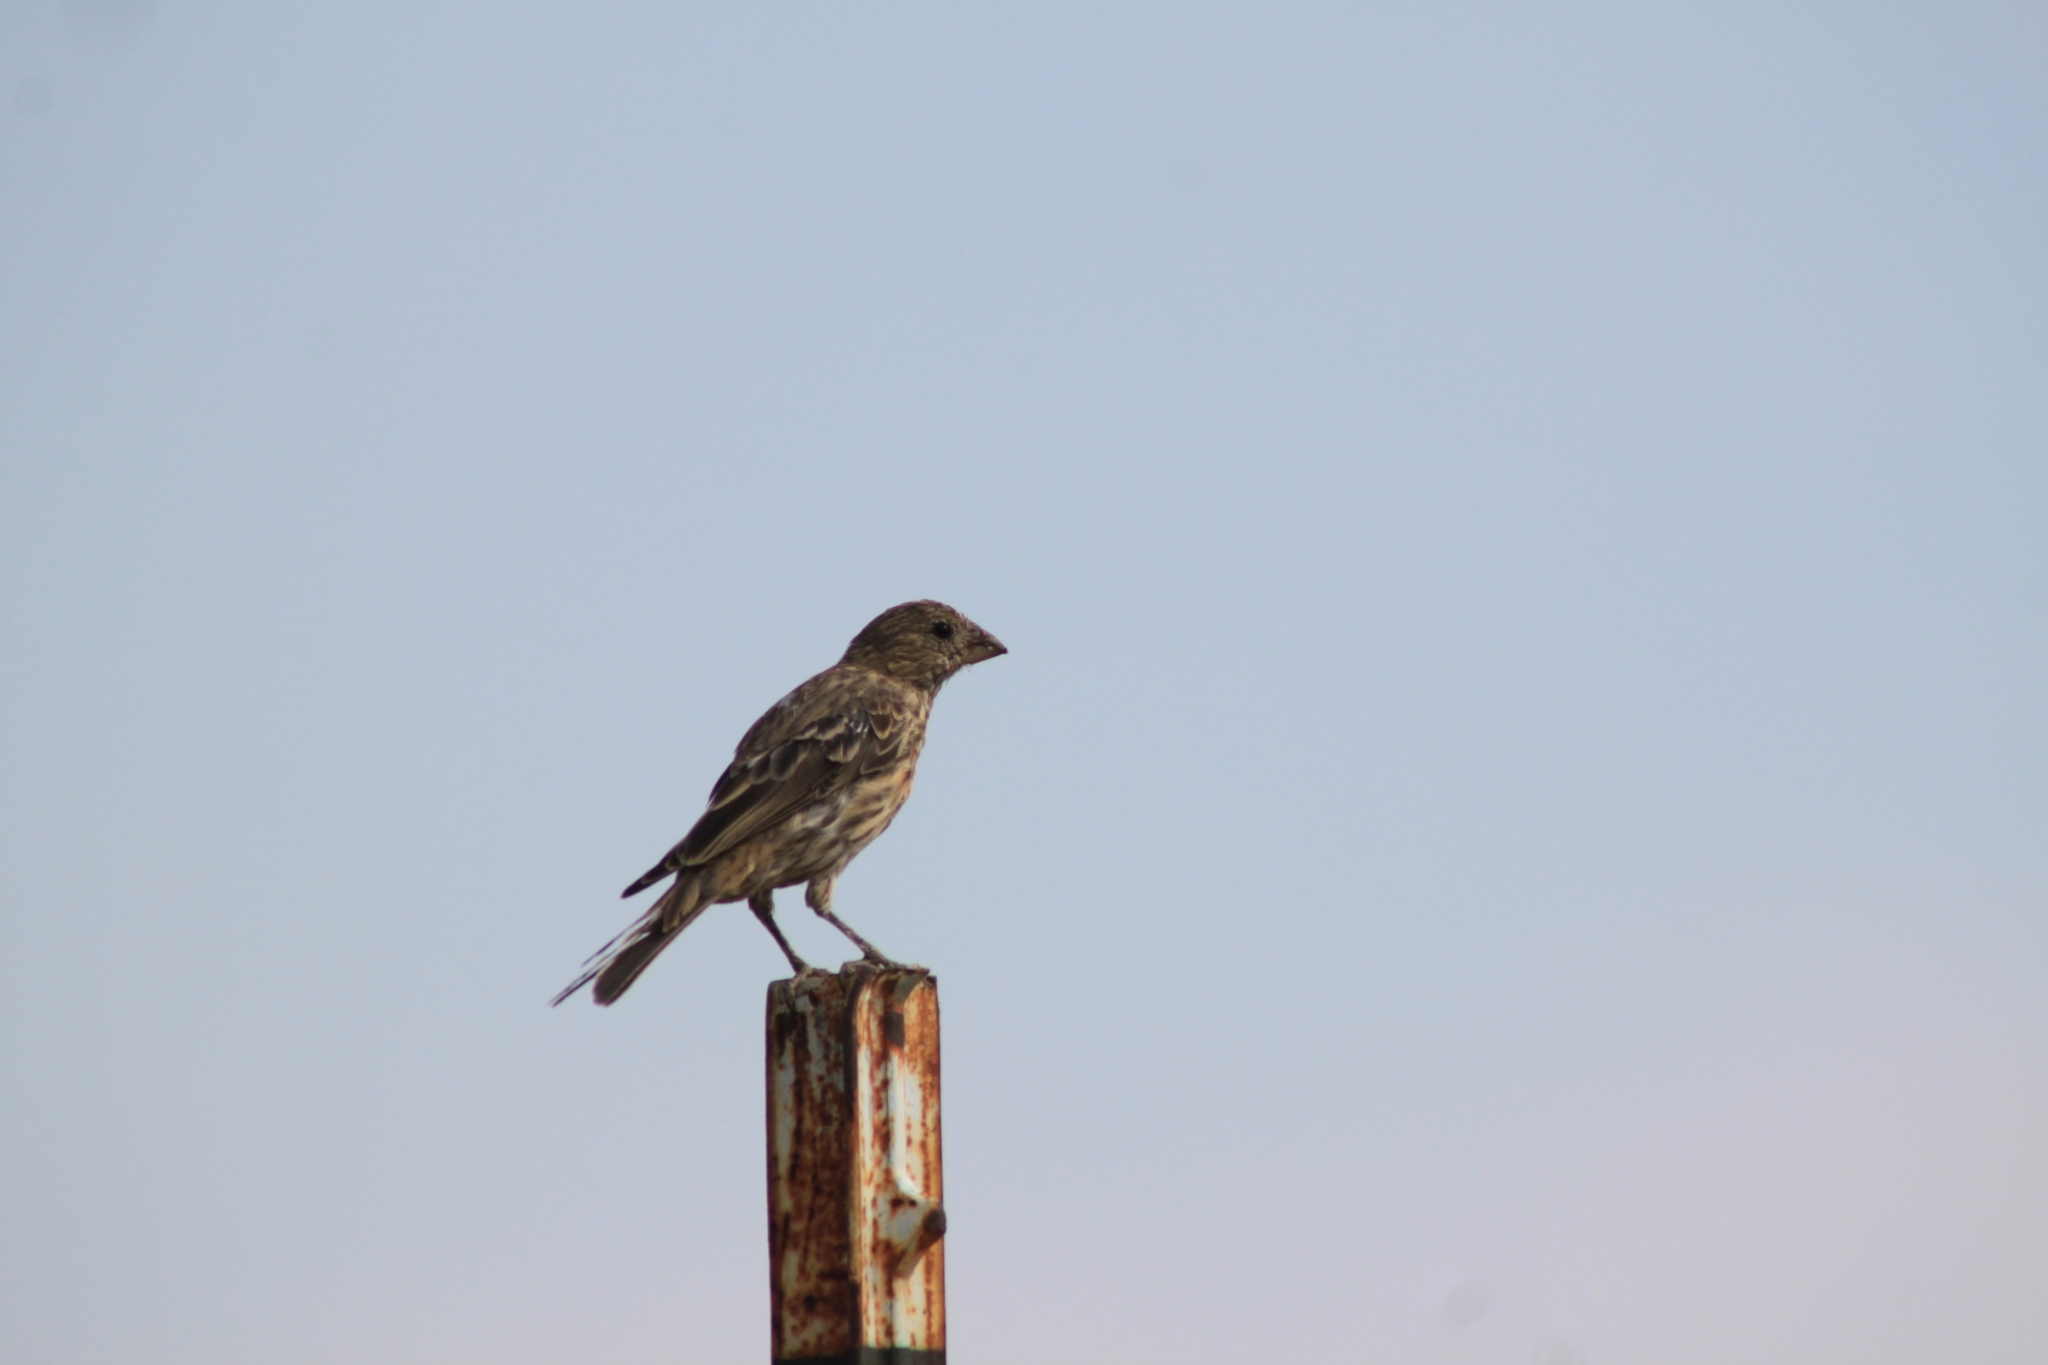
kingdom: Animalia
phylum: Chordata
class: Aves
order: Passeriformes
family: Fringillidae
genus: Haemorhous
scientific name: Haemorhous mexicanus
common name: House finch
